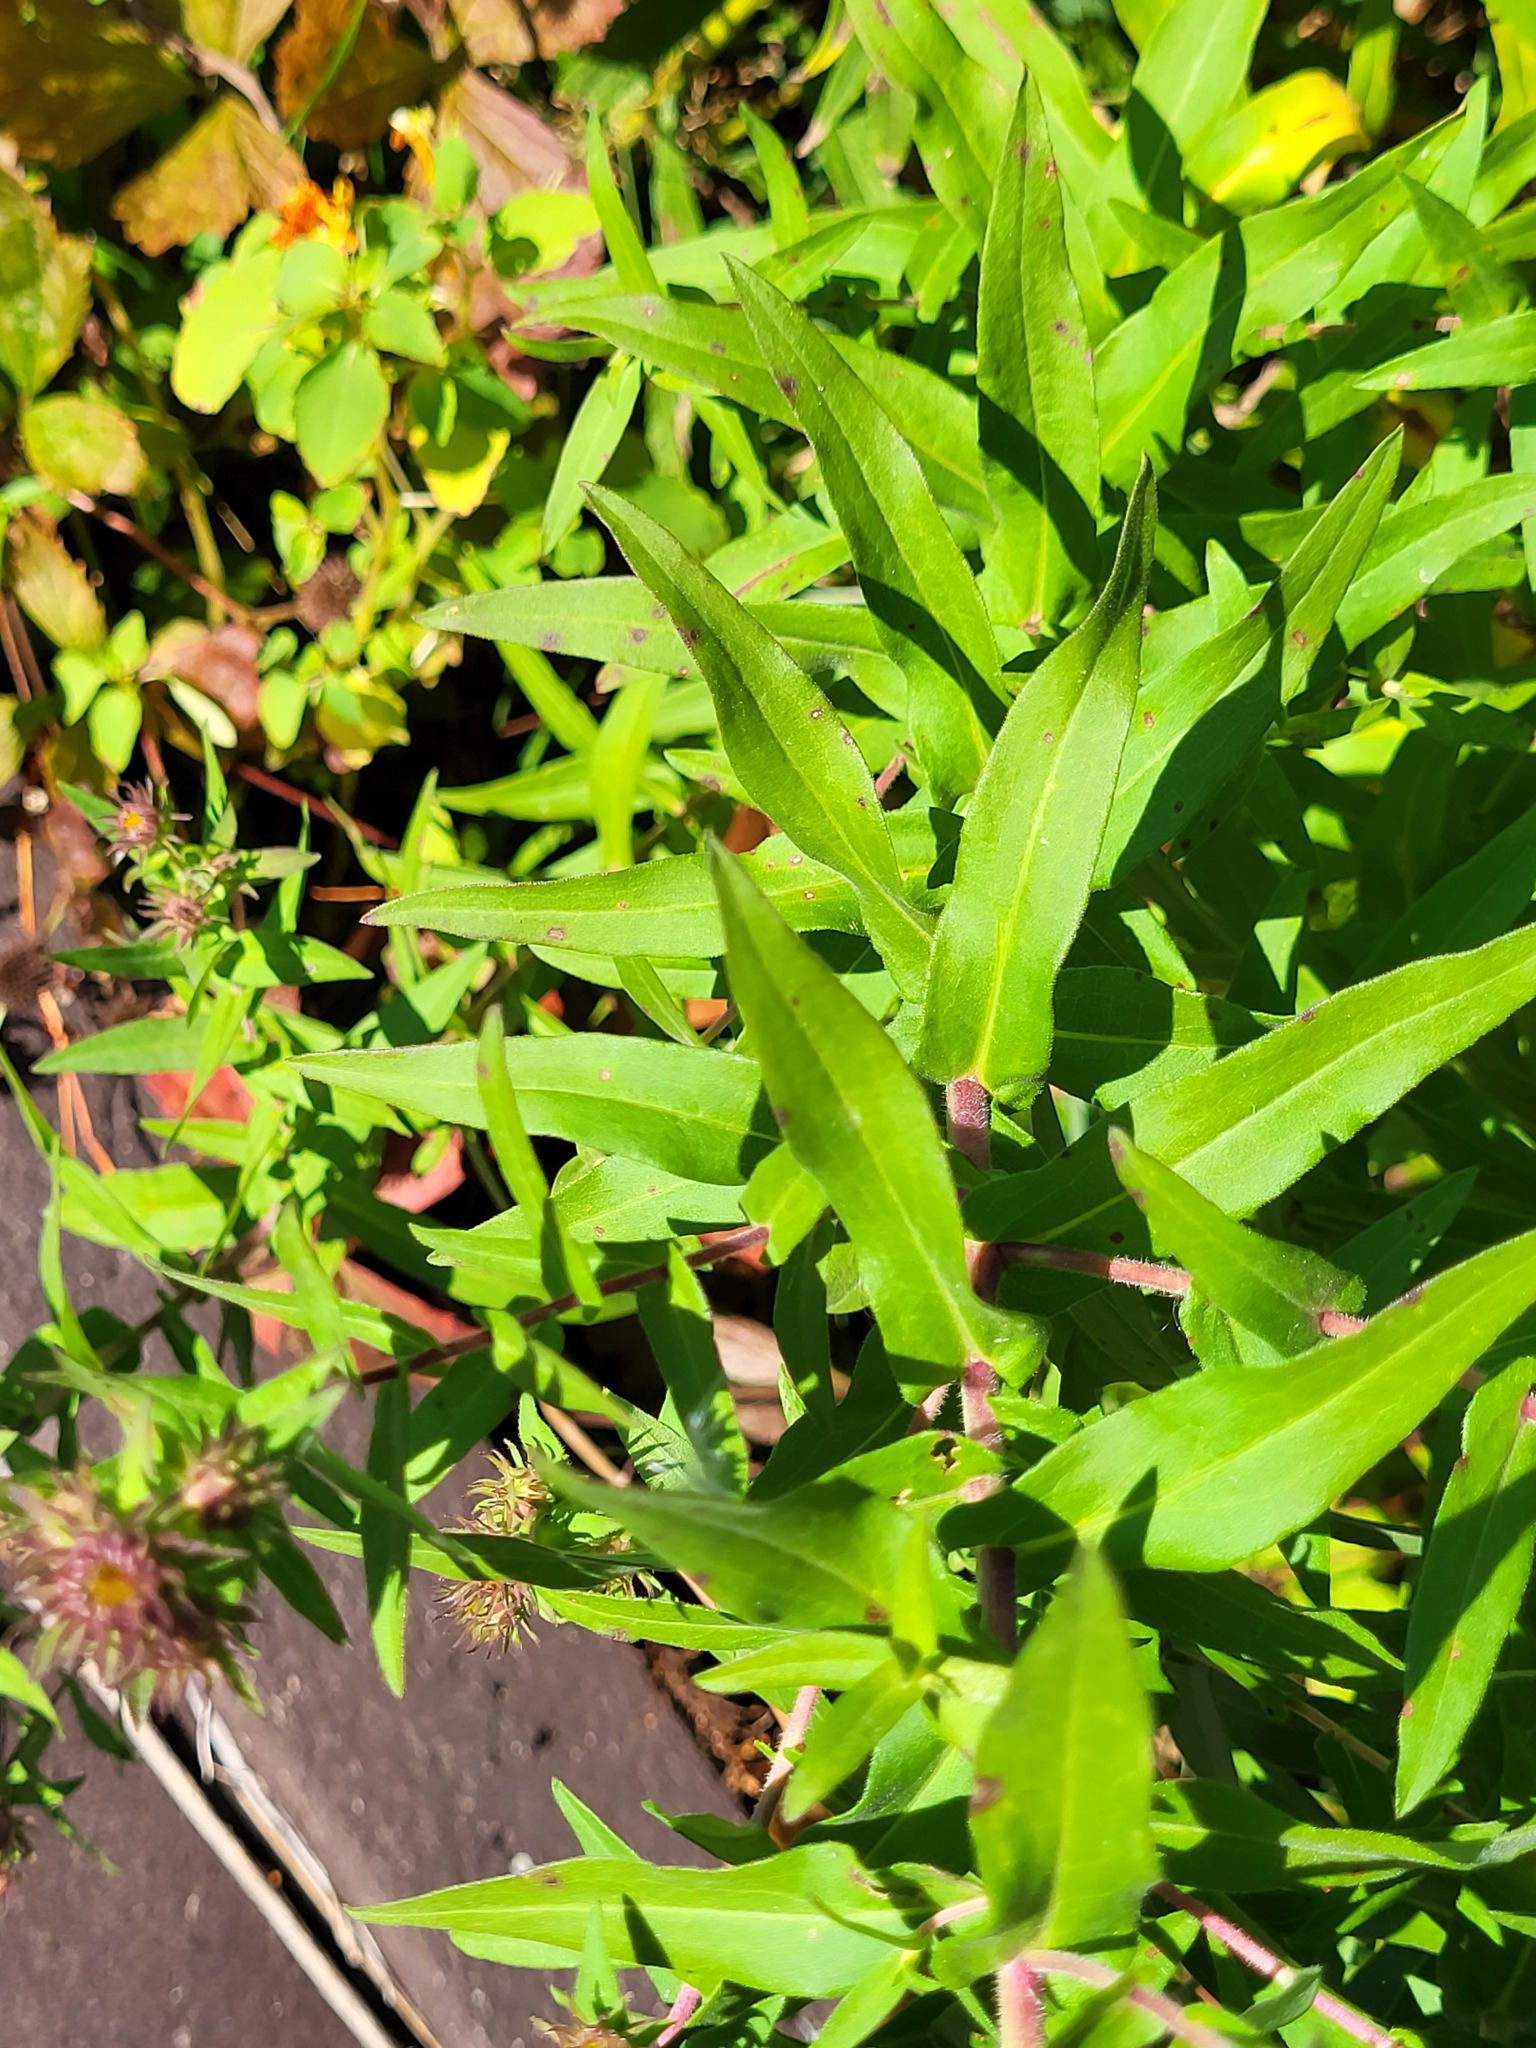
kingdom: Plantae
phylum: Tracheophyta
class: Magnoliopsida
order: Asterales
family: Asteraceae
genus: Symphyotrichum
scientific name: Symphyotrichum novae-angliae
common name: Michaelmas daisy
